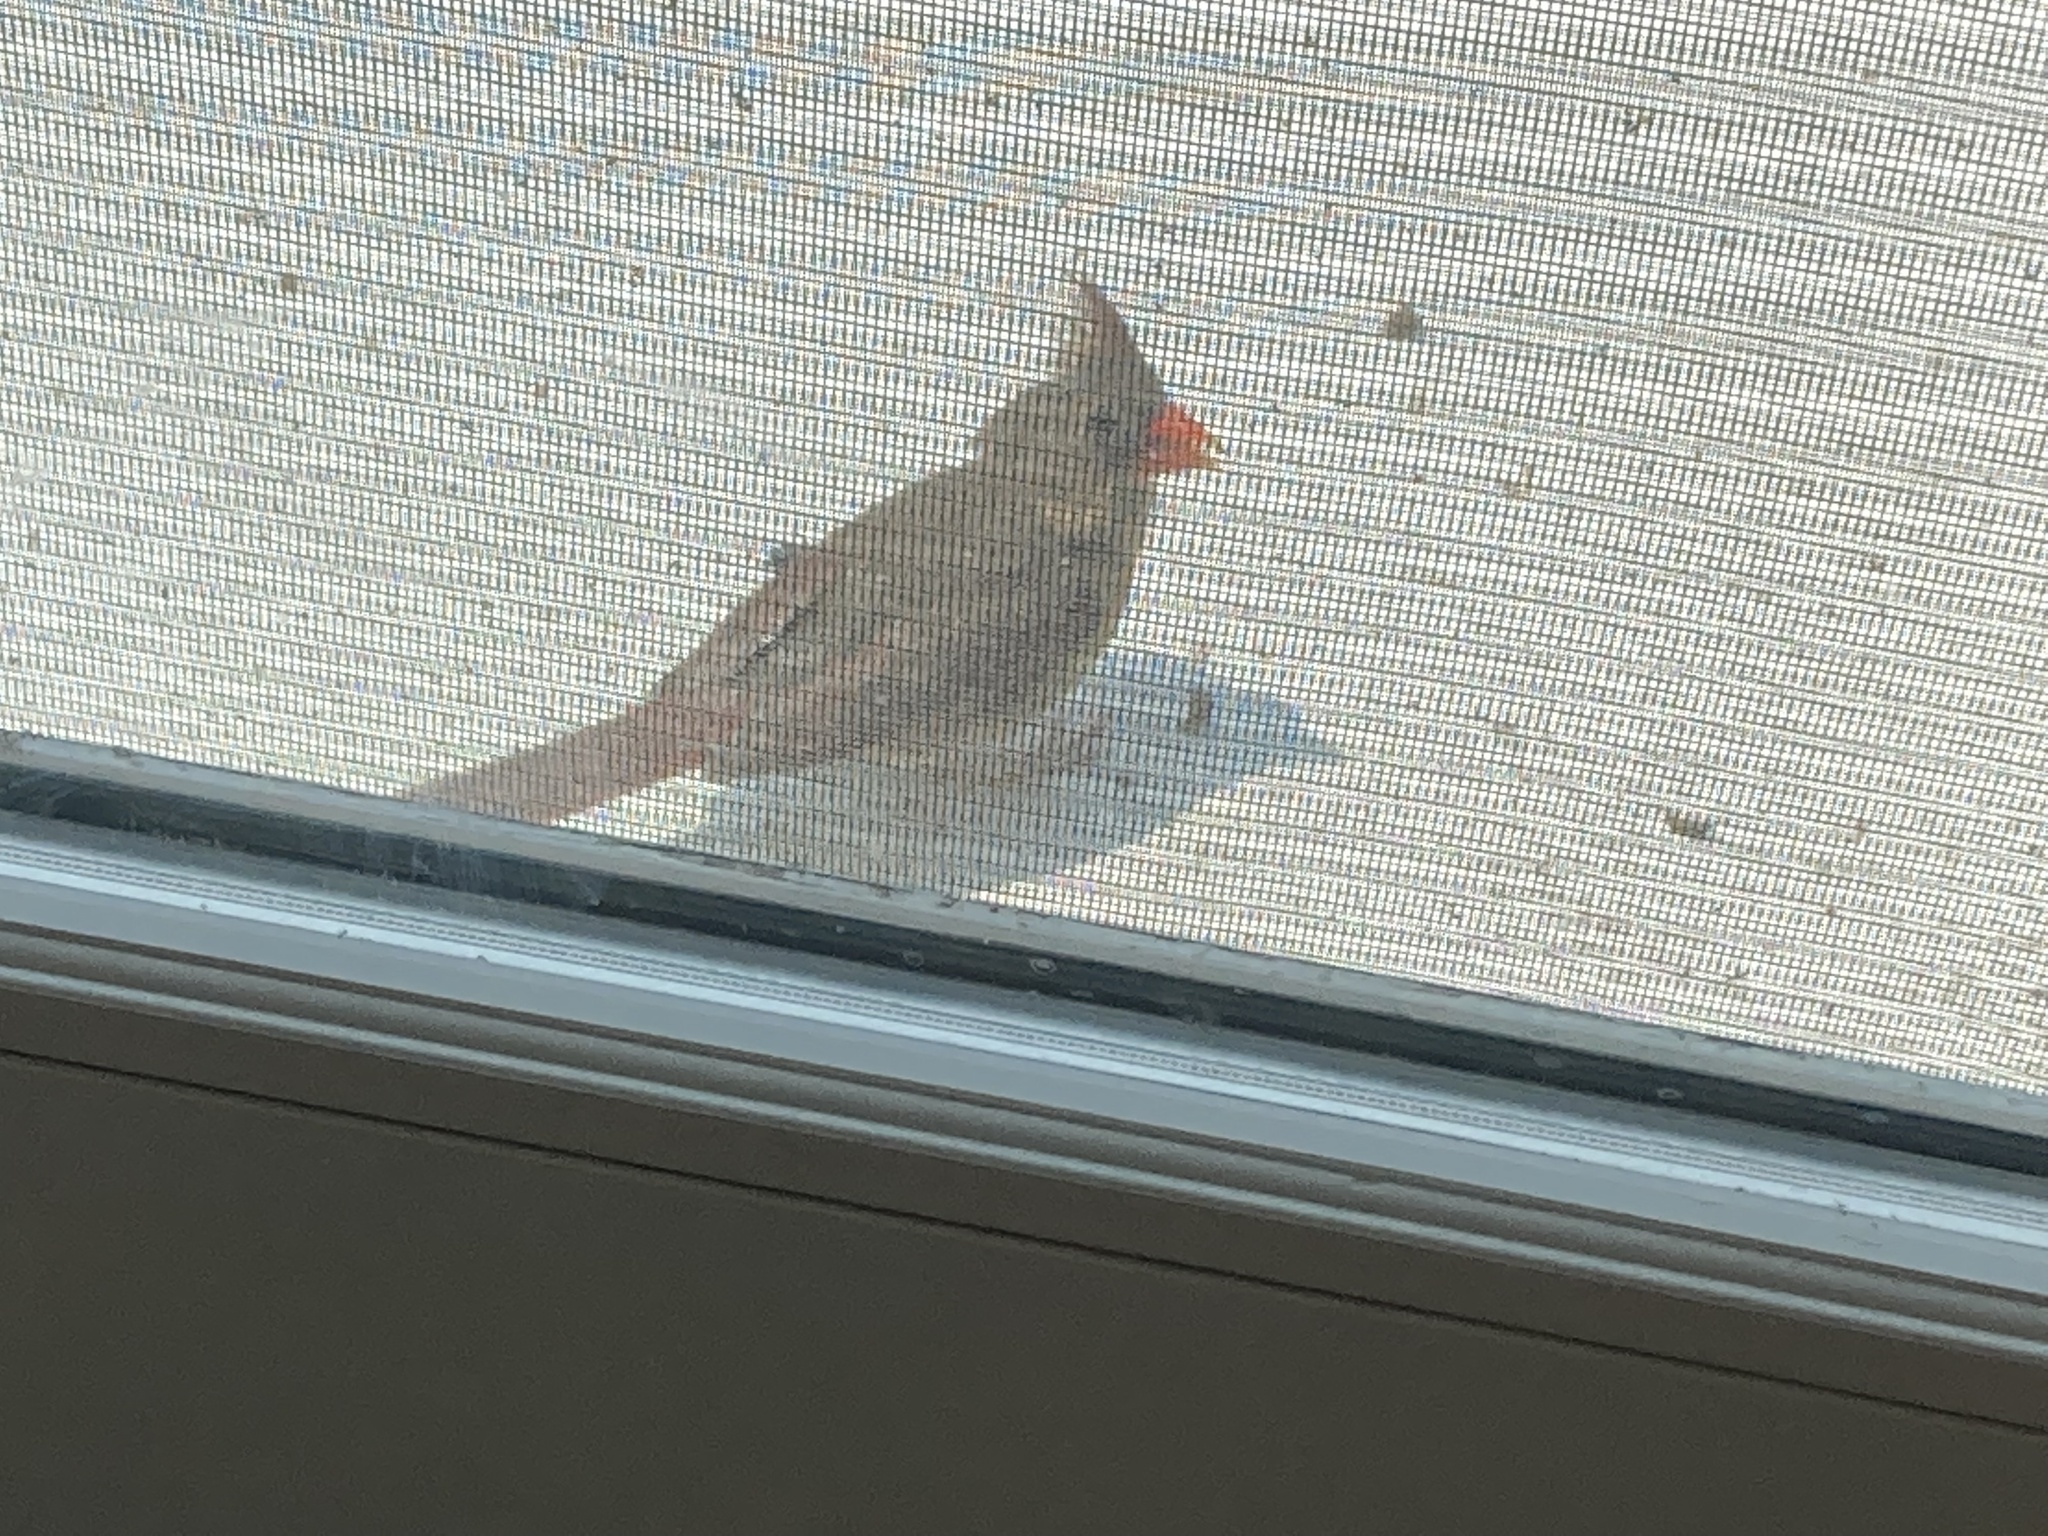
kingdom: Animalia
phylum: Chordata
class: Aves
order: Passeriformes
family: Cardinalidae
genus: Cardinalis
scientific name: Cardinalis cardinalis
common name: Northern cardinal
